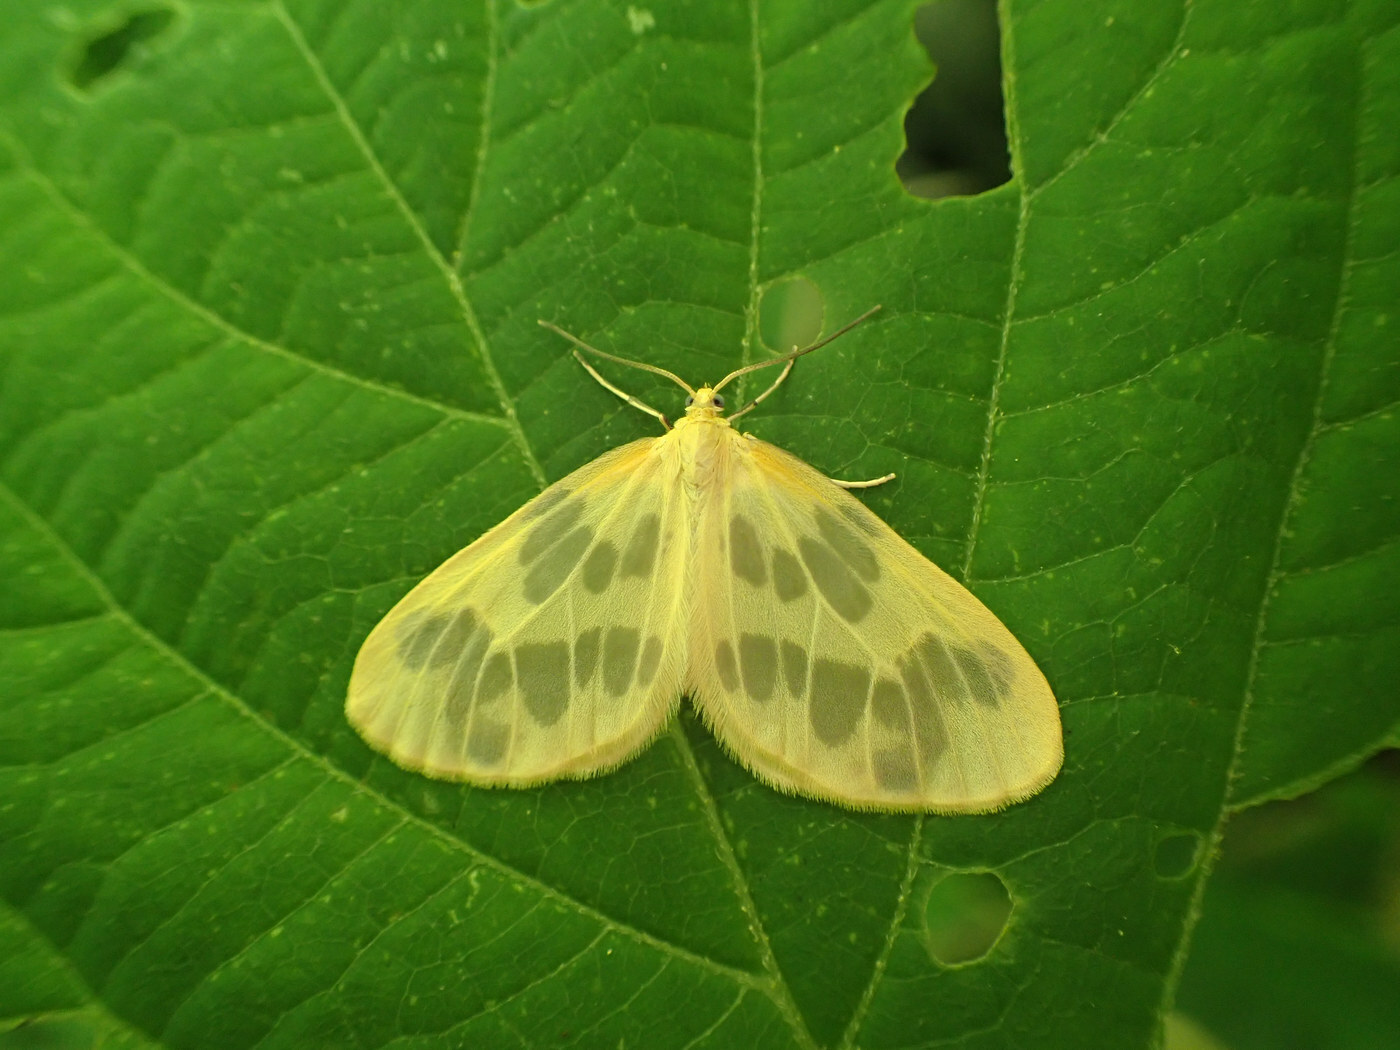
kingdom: Animalia
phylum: Arthropoda
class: Insecta
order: Lepidoptera
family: Geometridae
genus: Eubaphe
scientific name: Eubaphe mendica
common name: Beggar
